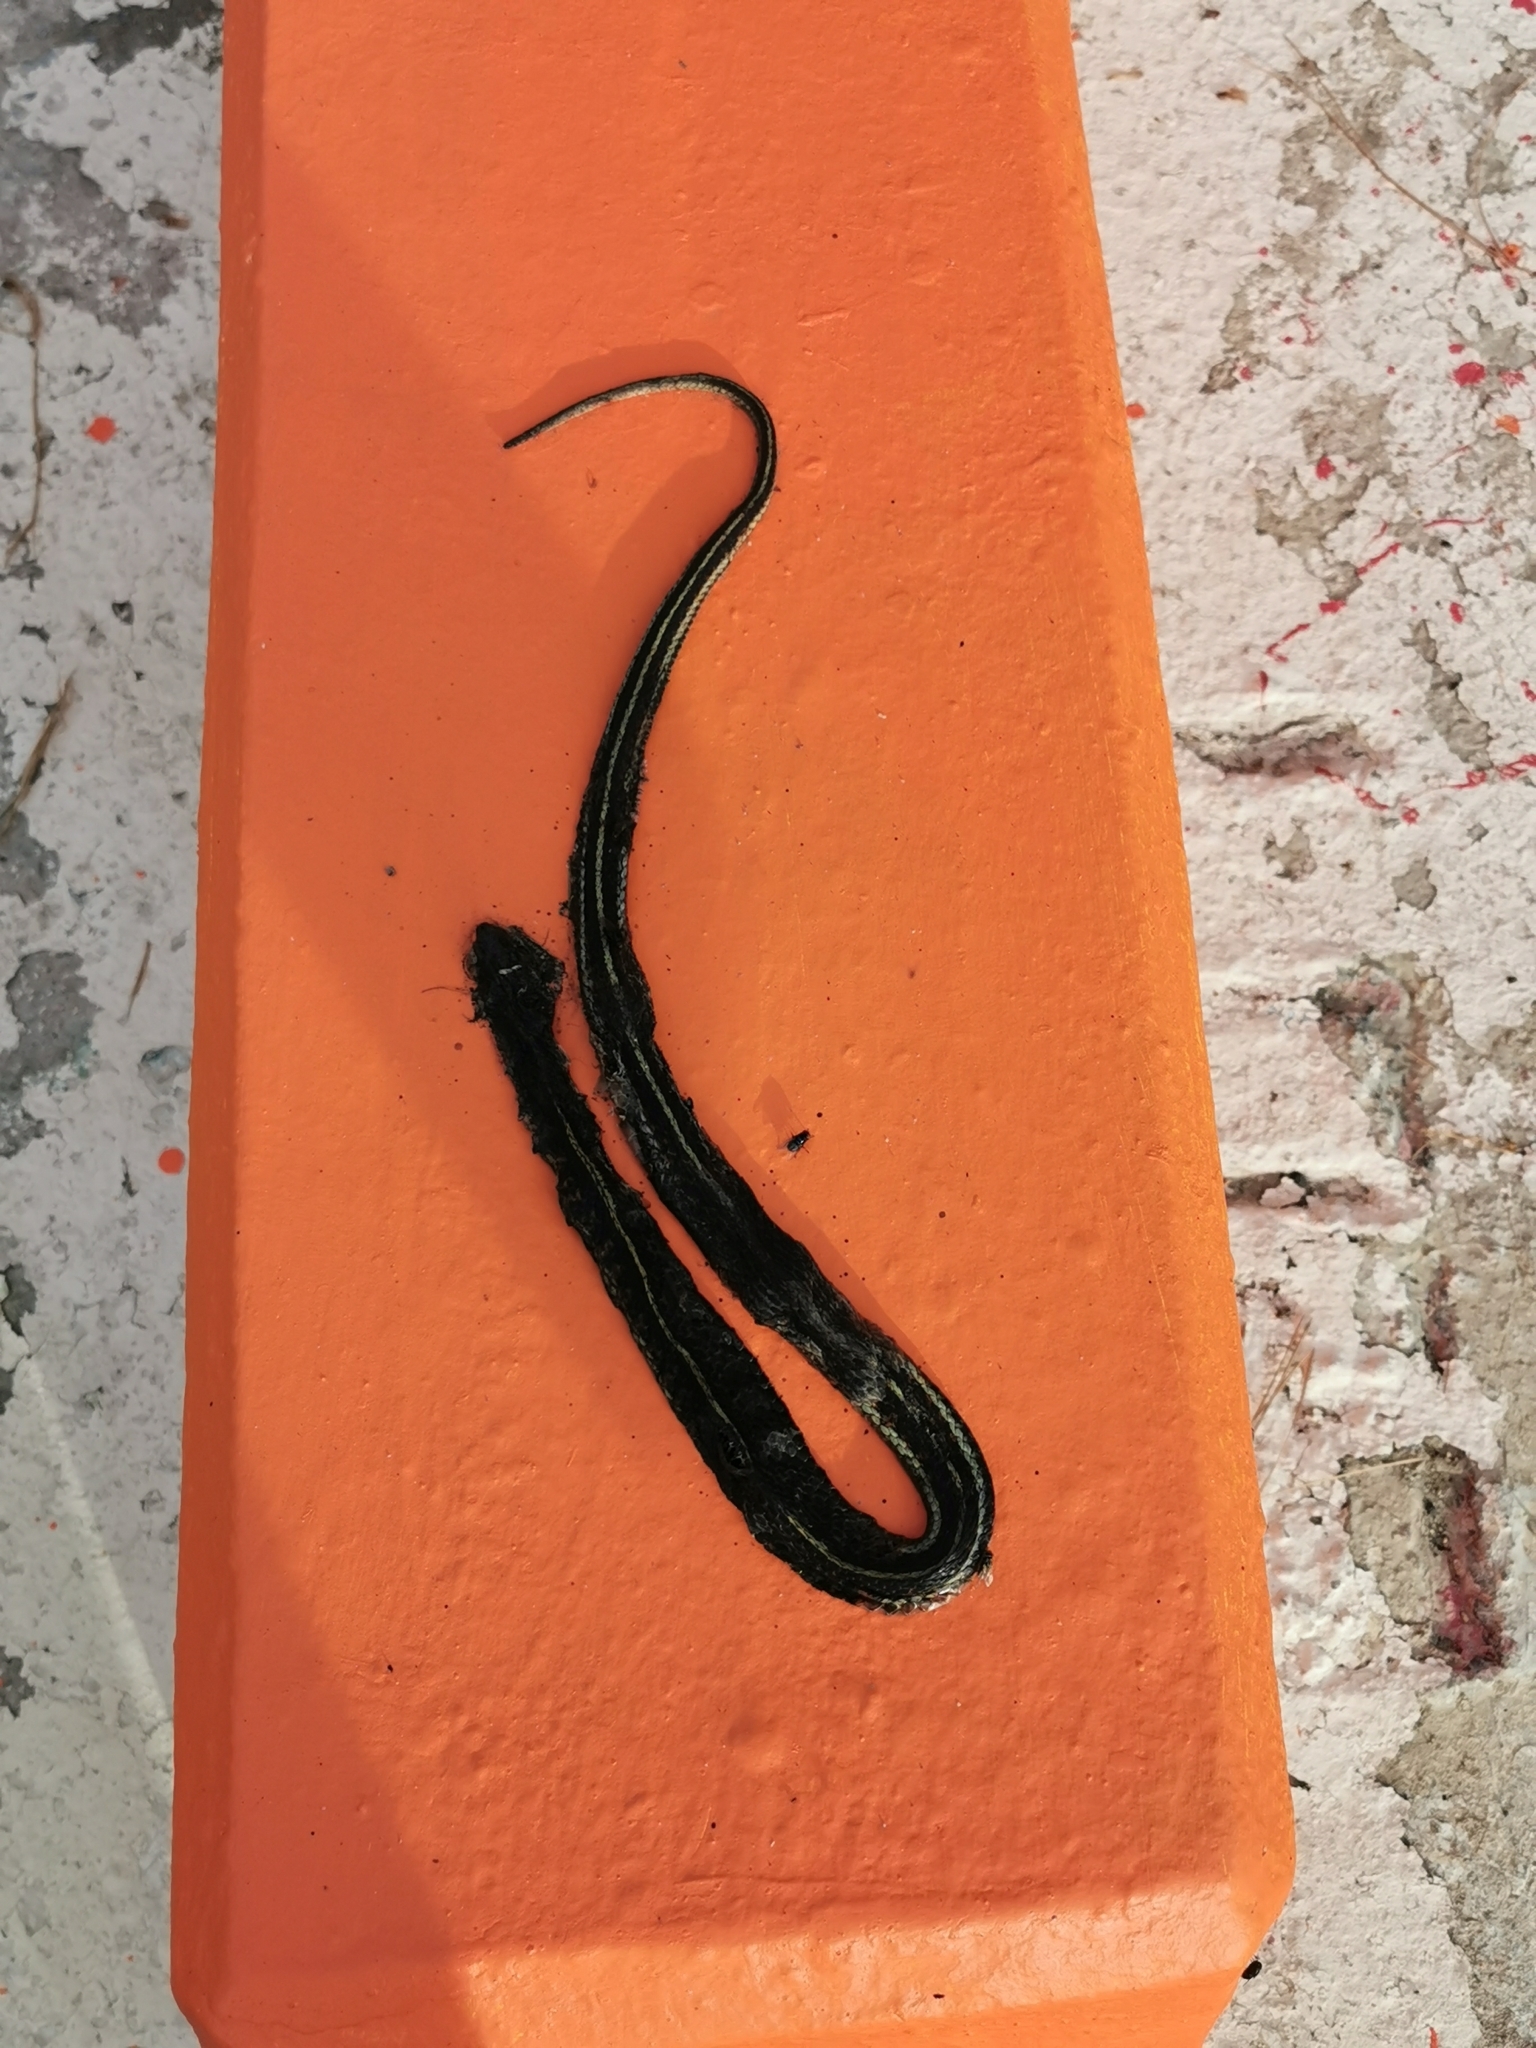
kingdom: Animalia
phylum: Chordata
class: Squamata
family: Colubridae
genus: Thamnophis
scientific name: Thamnophis sirtalis
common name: Common garter snake
